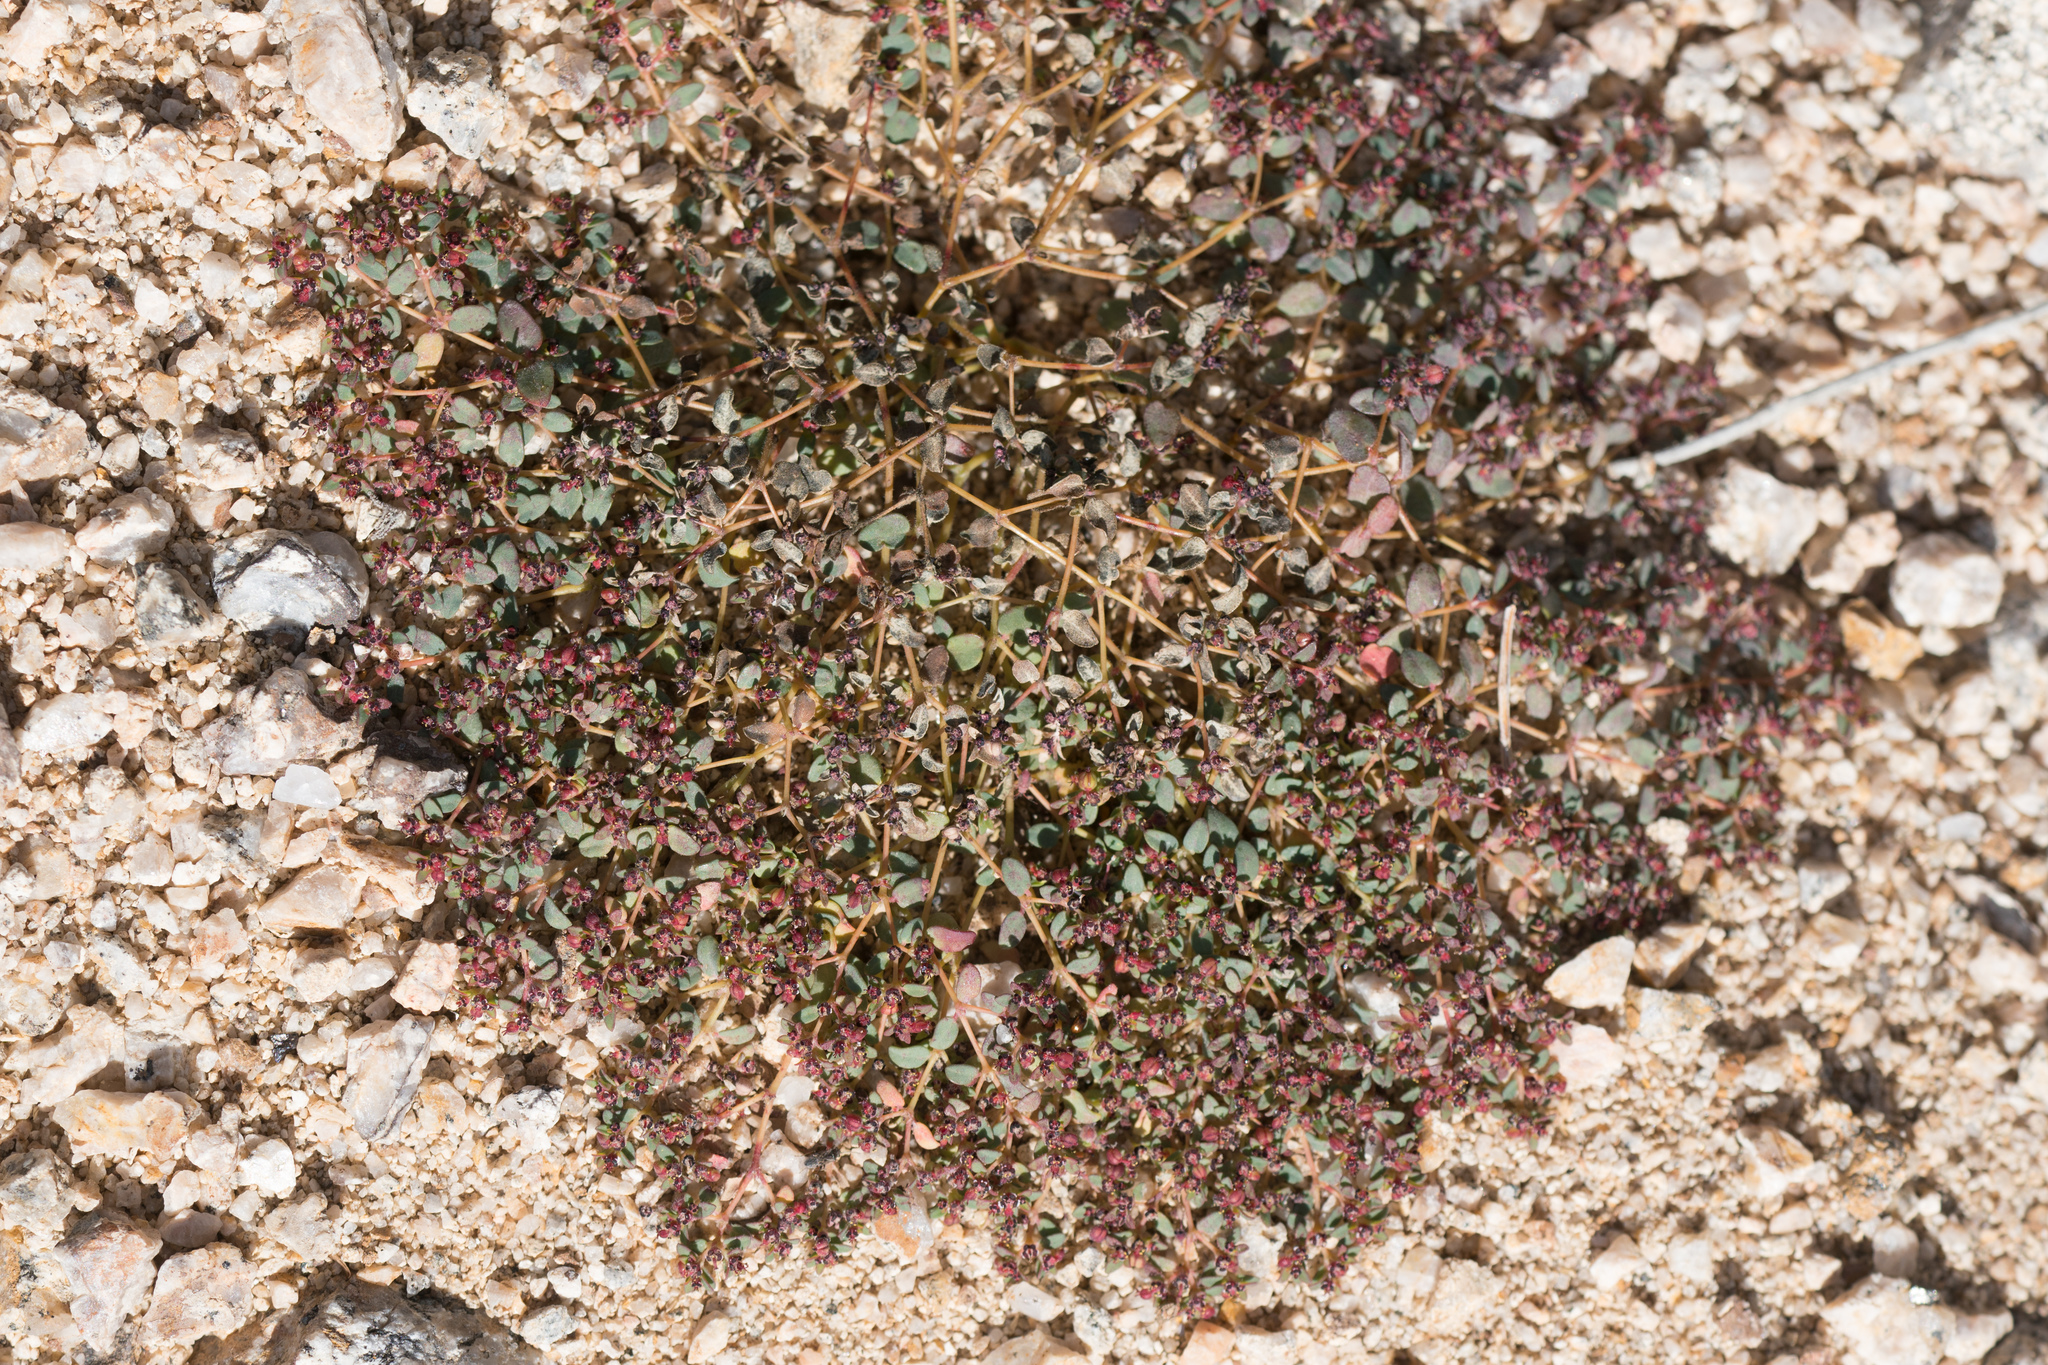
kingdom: Plantae
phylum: Tracheophyta
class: Magnoliopsida
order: Malpighiales
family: Euphorbiaceae
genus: Euphorbia
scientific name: Euphorbia polycarpa
